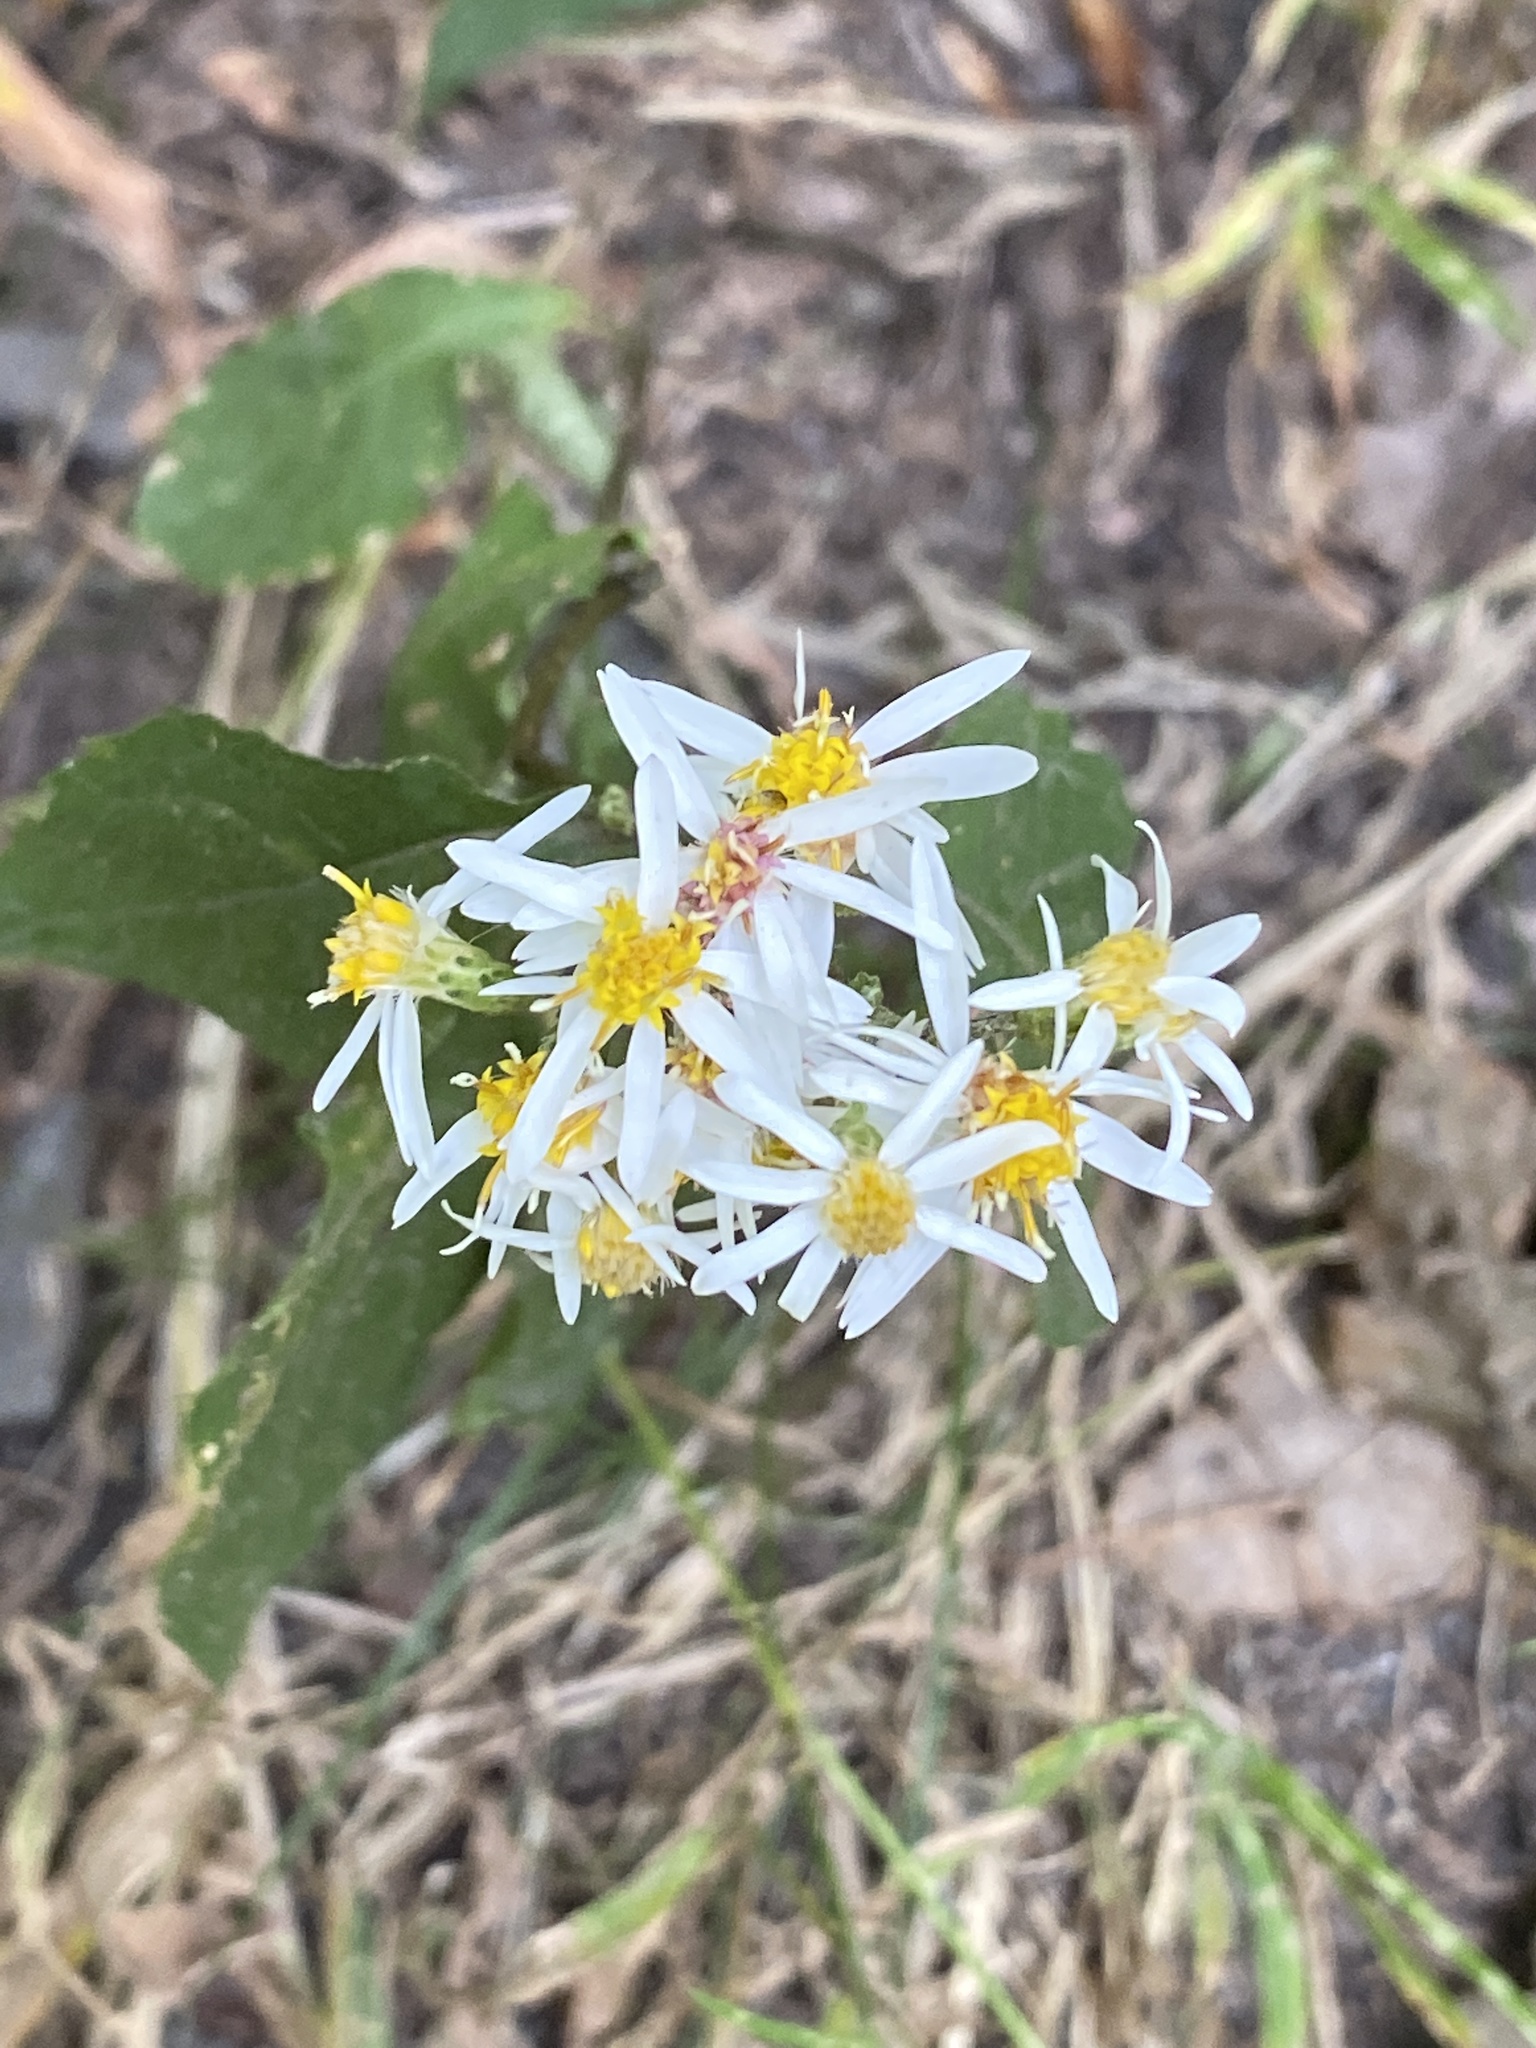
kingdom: Plantae
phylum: Tracheophyta
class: Magnoliopsida
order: Asterales
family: Asteraceae
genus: Eurybia
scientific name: Eurybia divaricata
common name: White wood aster
